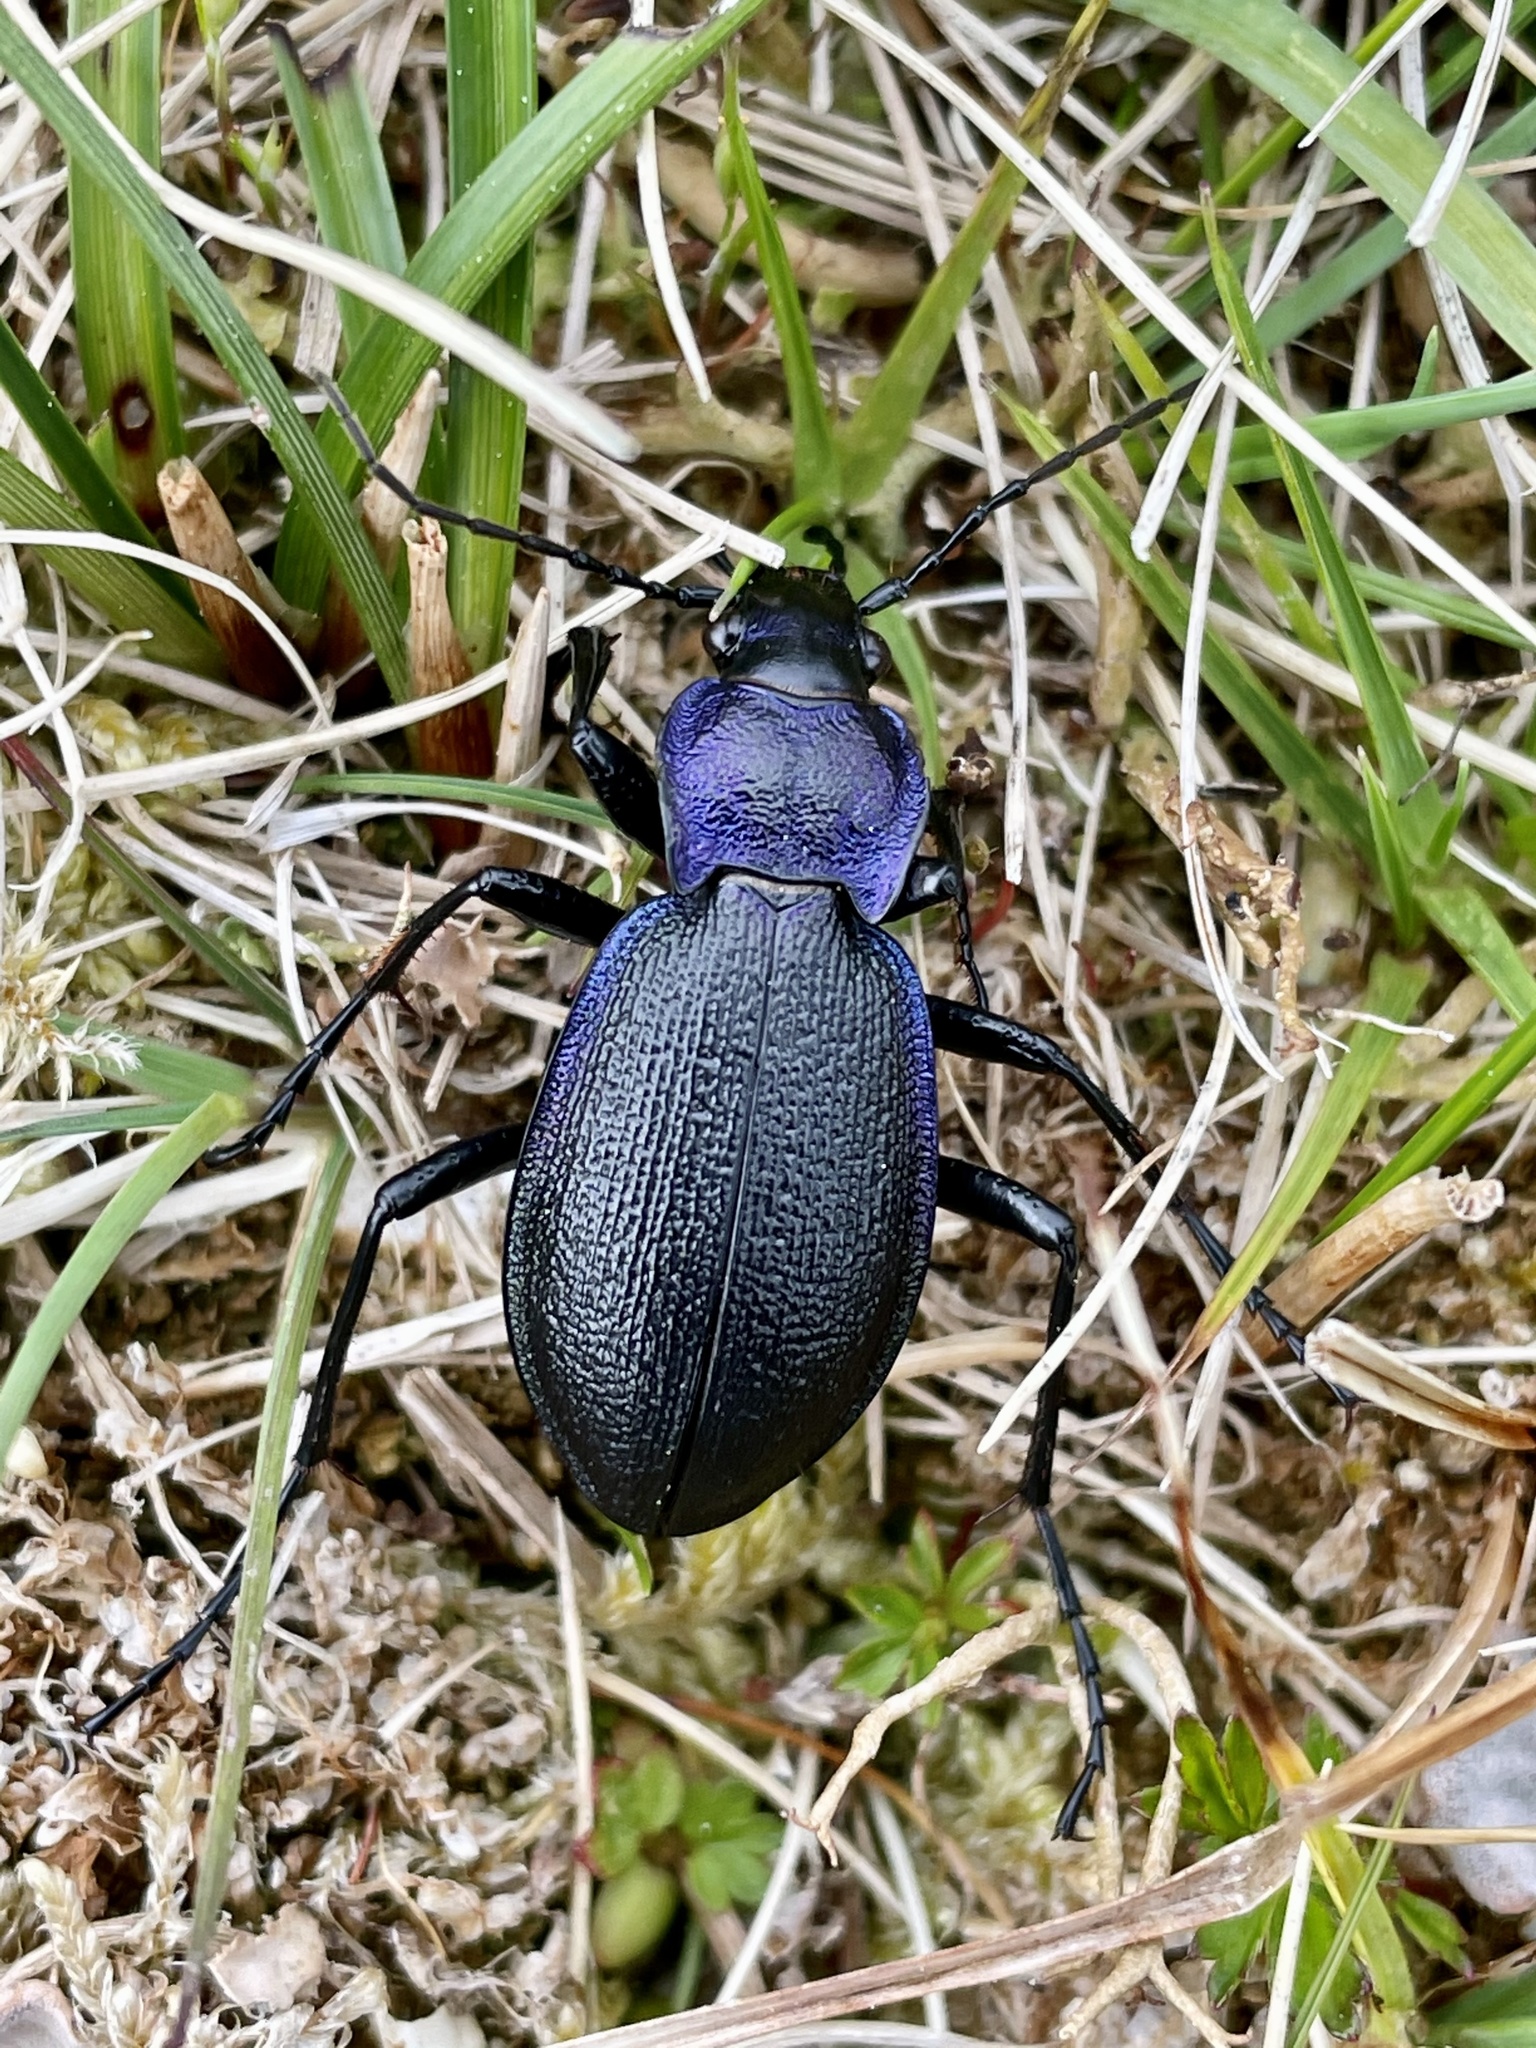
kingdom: Animalia
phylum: Arthropoda
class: Insecta
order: Coleoptera
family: Carabidae
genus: Carabus
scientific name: Carabus problematicus
